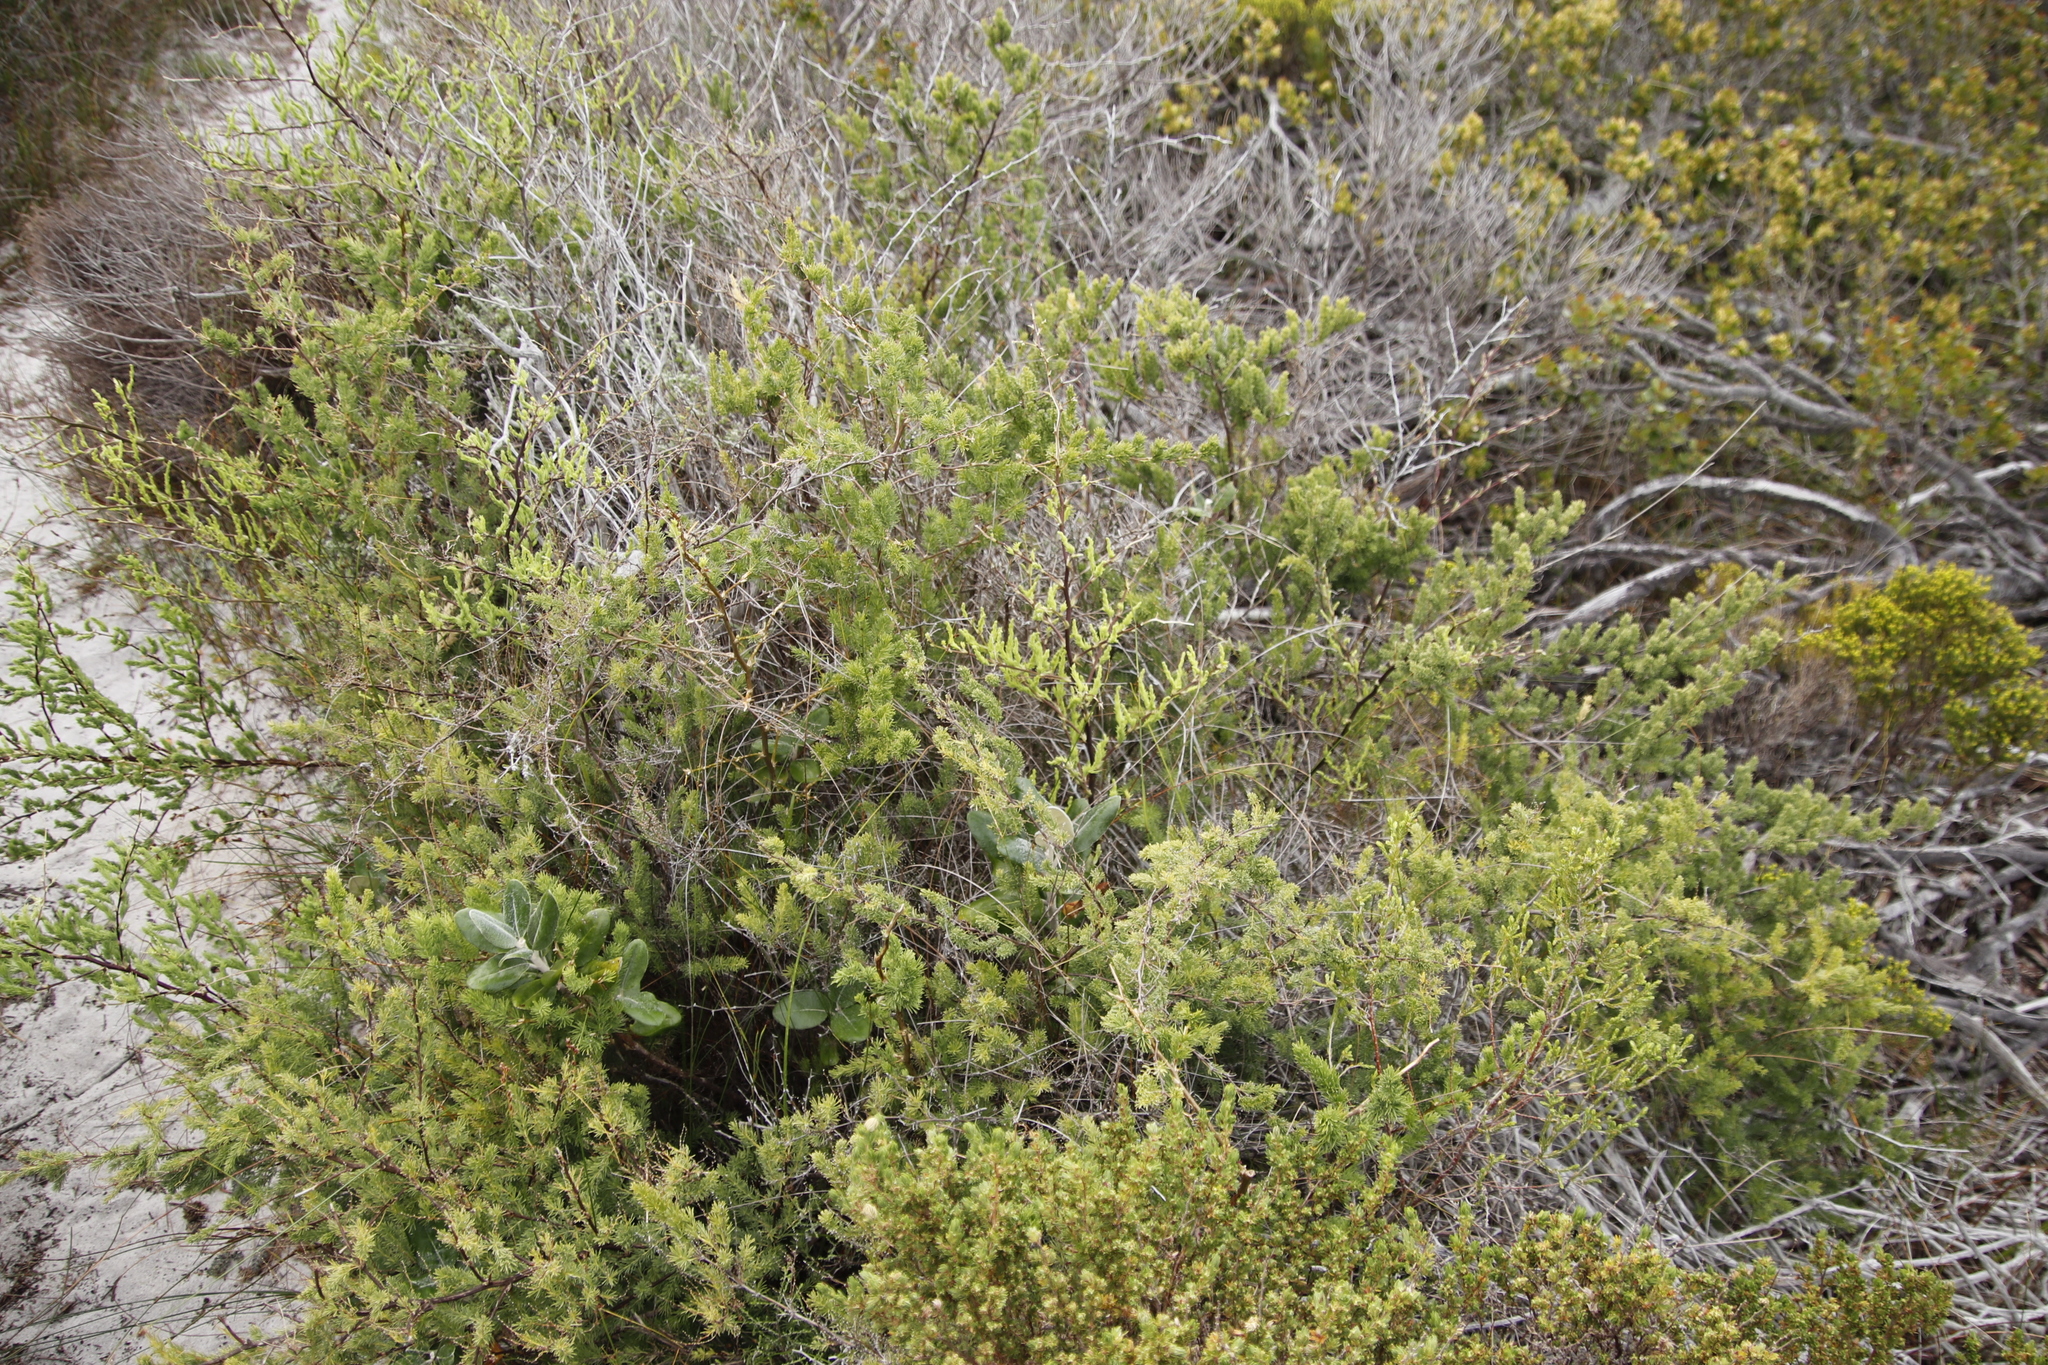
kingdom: Plantae
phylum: Tracheophyta
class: Liliopsida
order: Asparagales
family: Asparagaceae
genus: Asparagus
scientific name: Asparagus rubicundus
